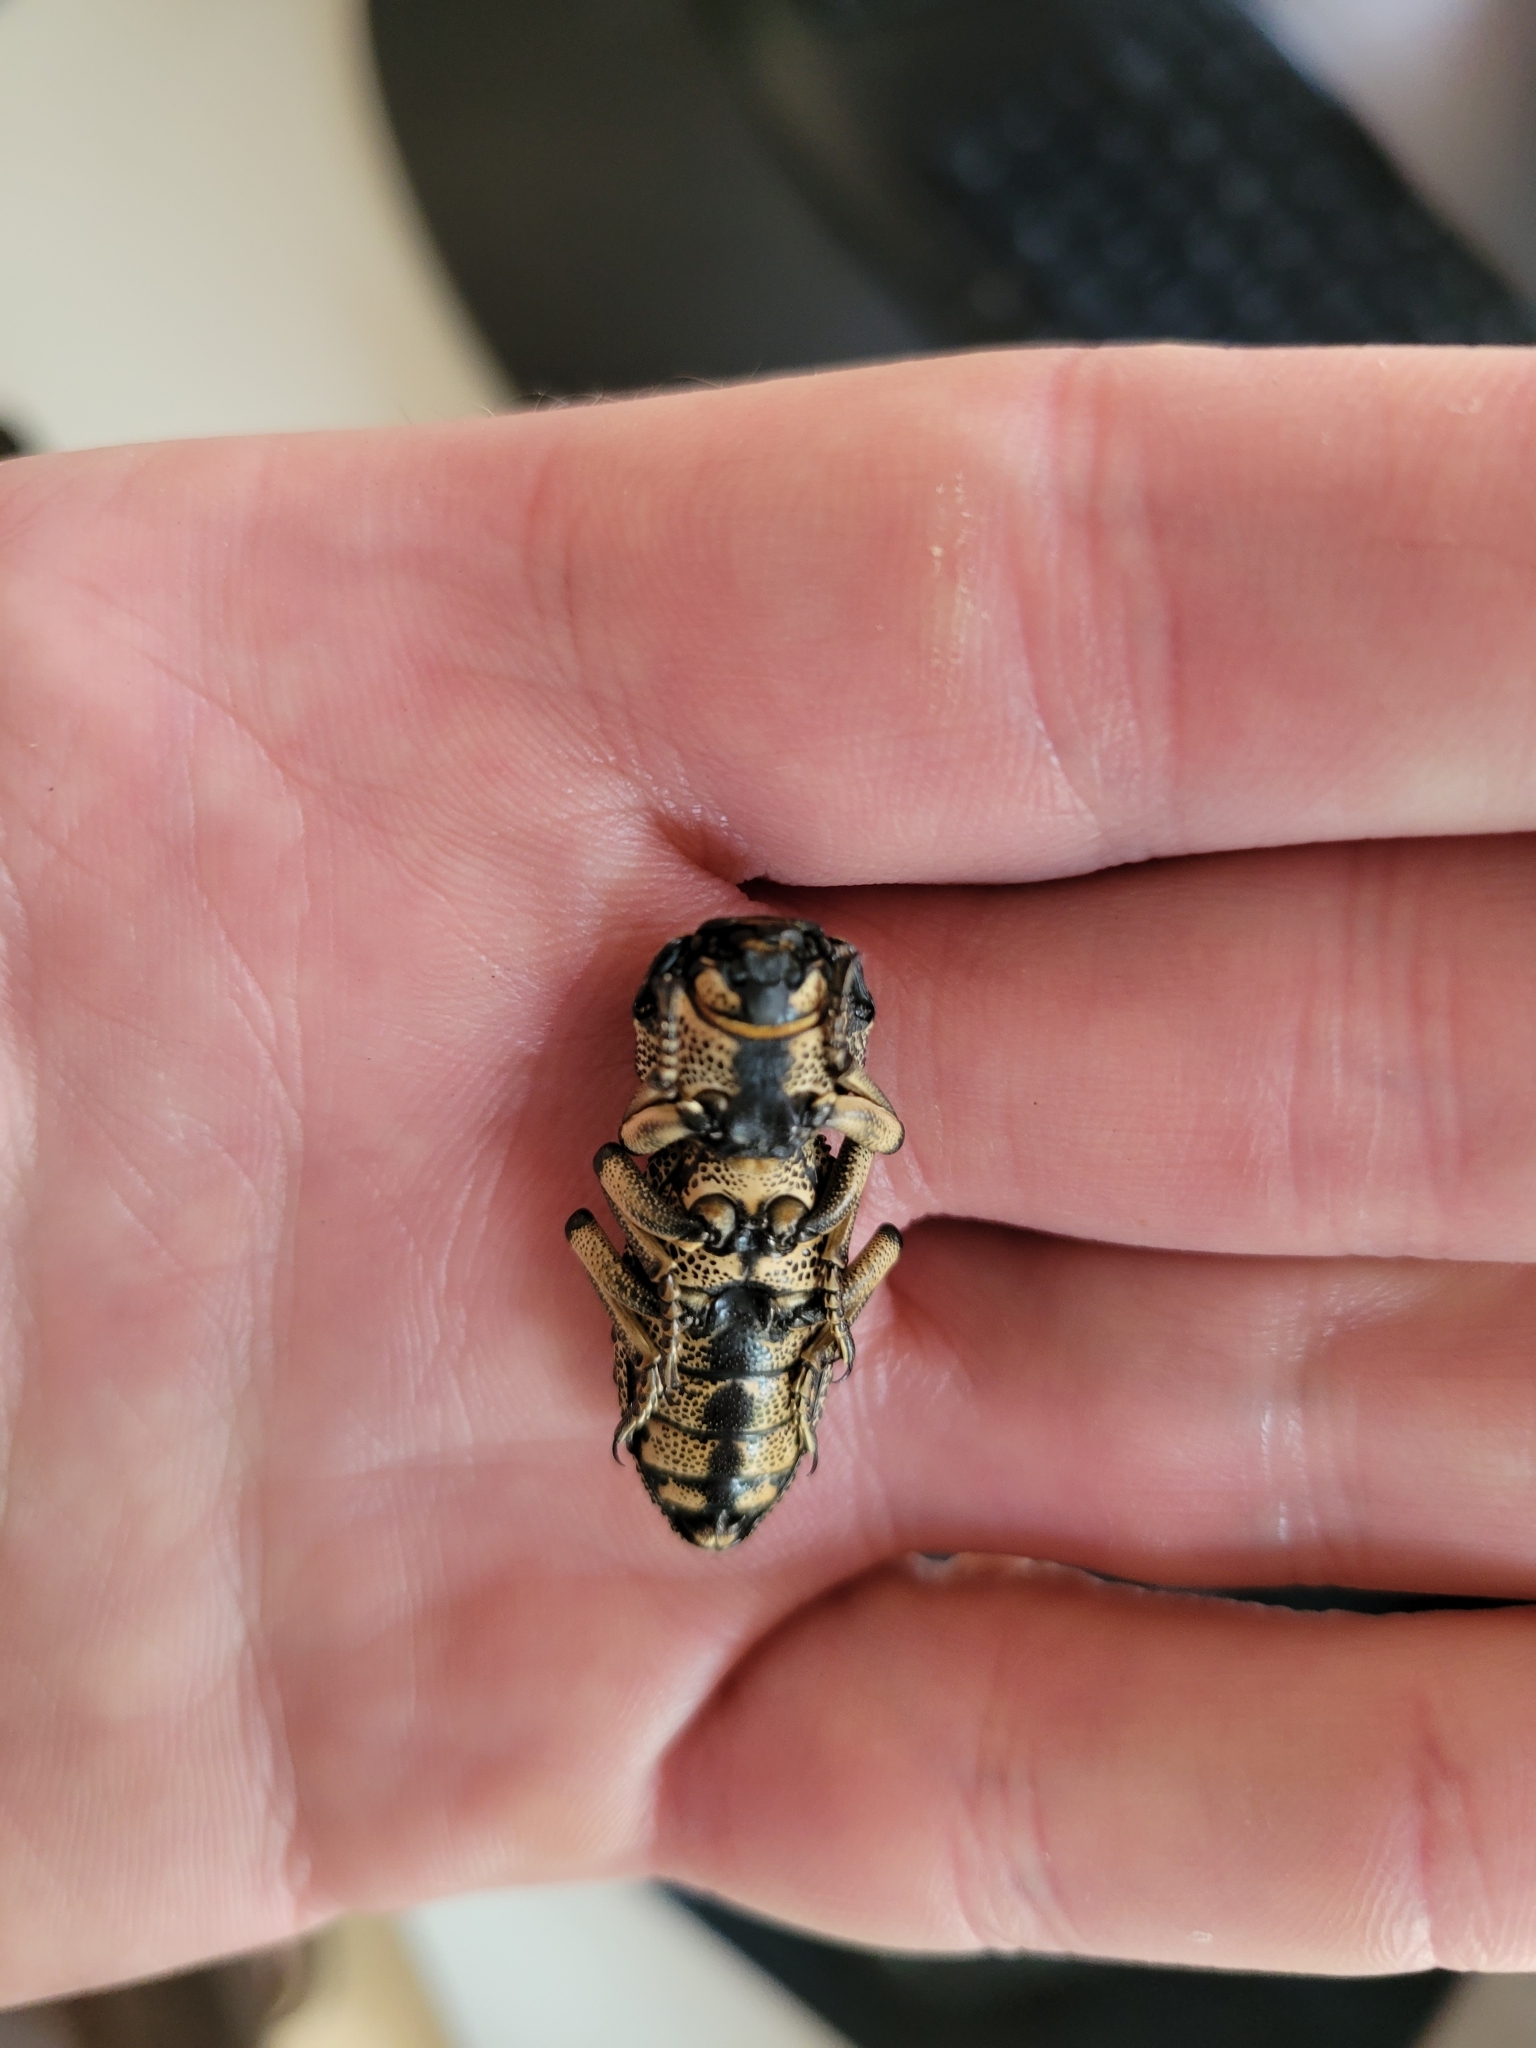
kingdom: Animalia
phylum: Arthropoda
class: Insecta
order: Coleoptera
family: Zopheridae
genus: Zopherus
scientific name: Zopherus
